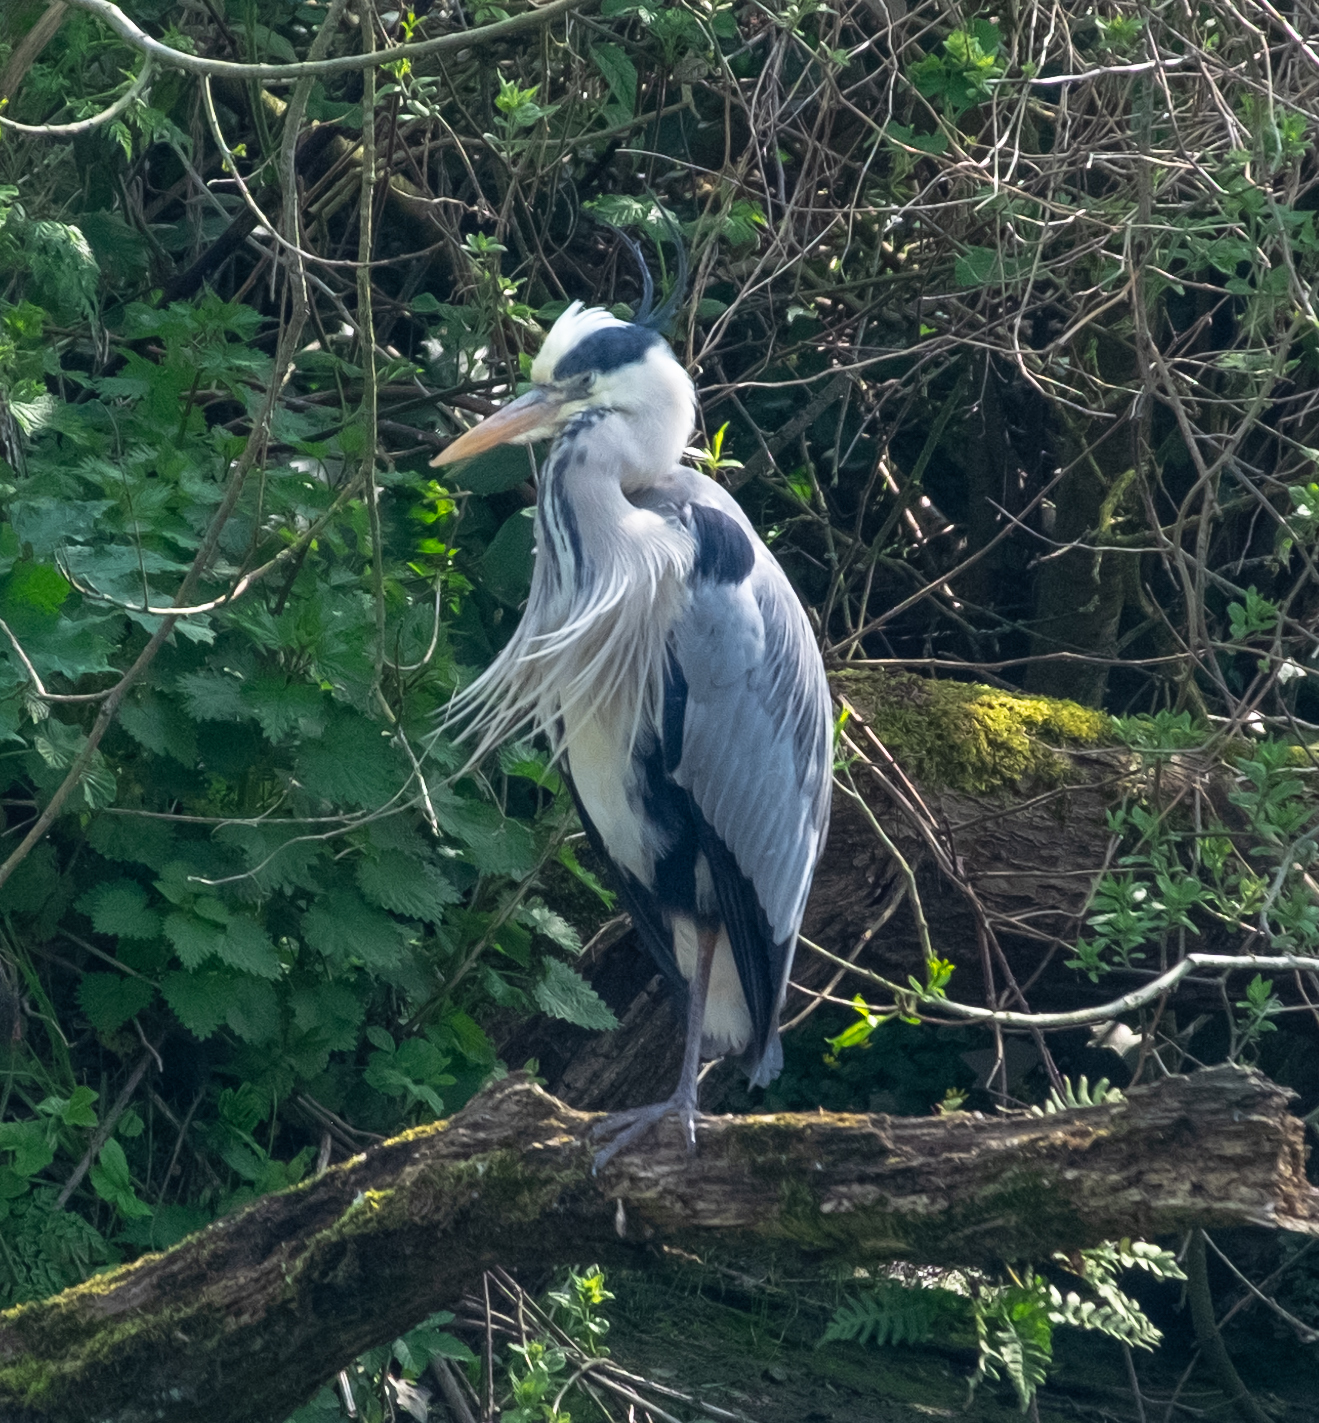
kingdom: Animalia
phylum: Chordata
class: Aves
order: Pelecaniformes
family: Ardeidae
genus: Ardea
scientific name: Ardea cinerea
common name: Grey heron
